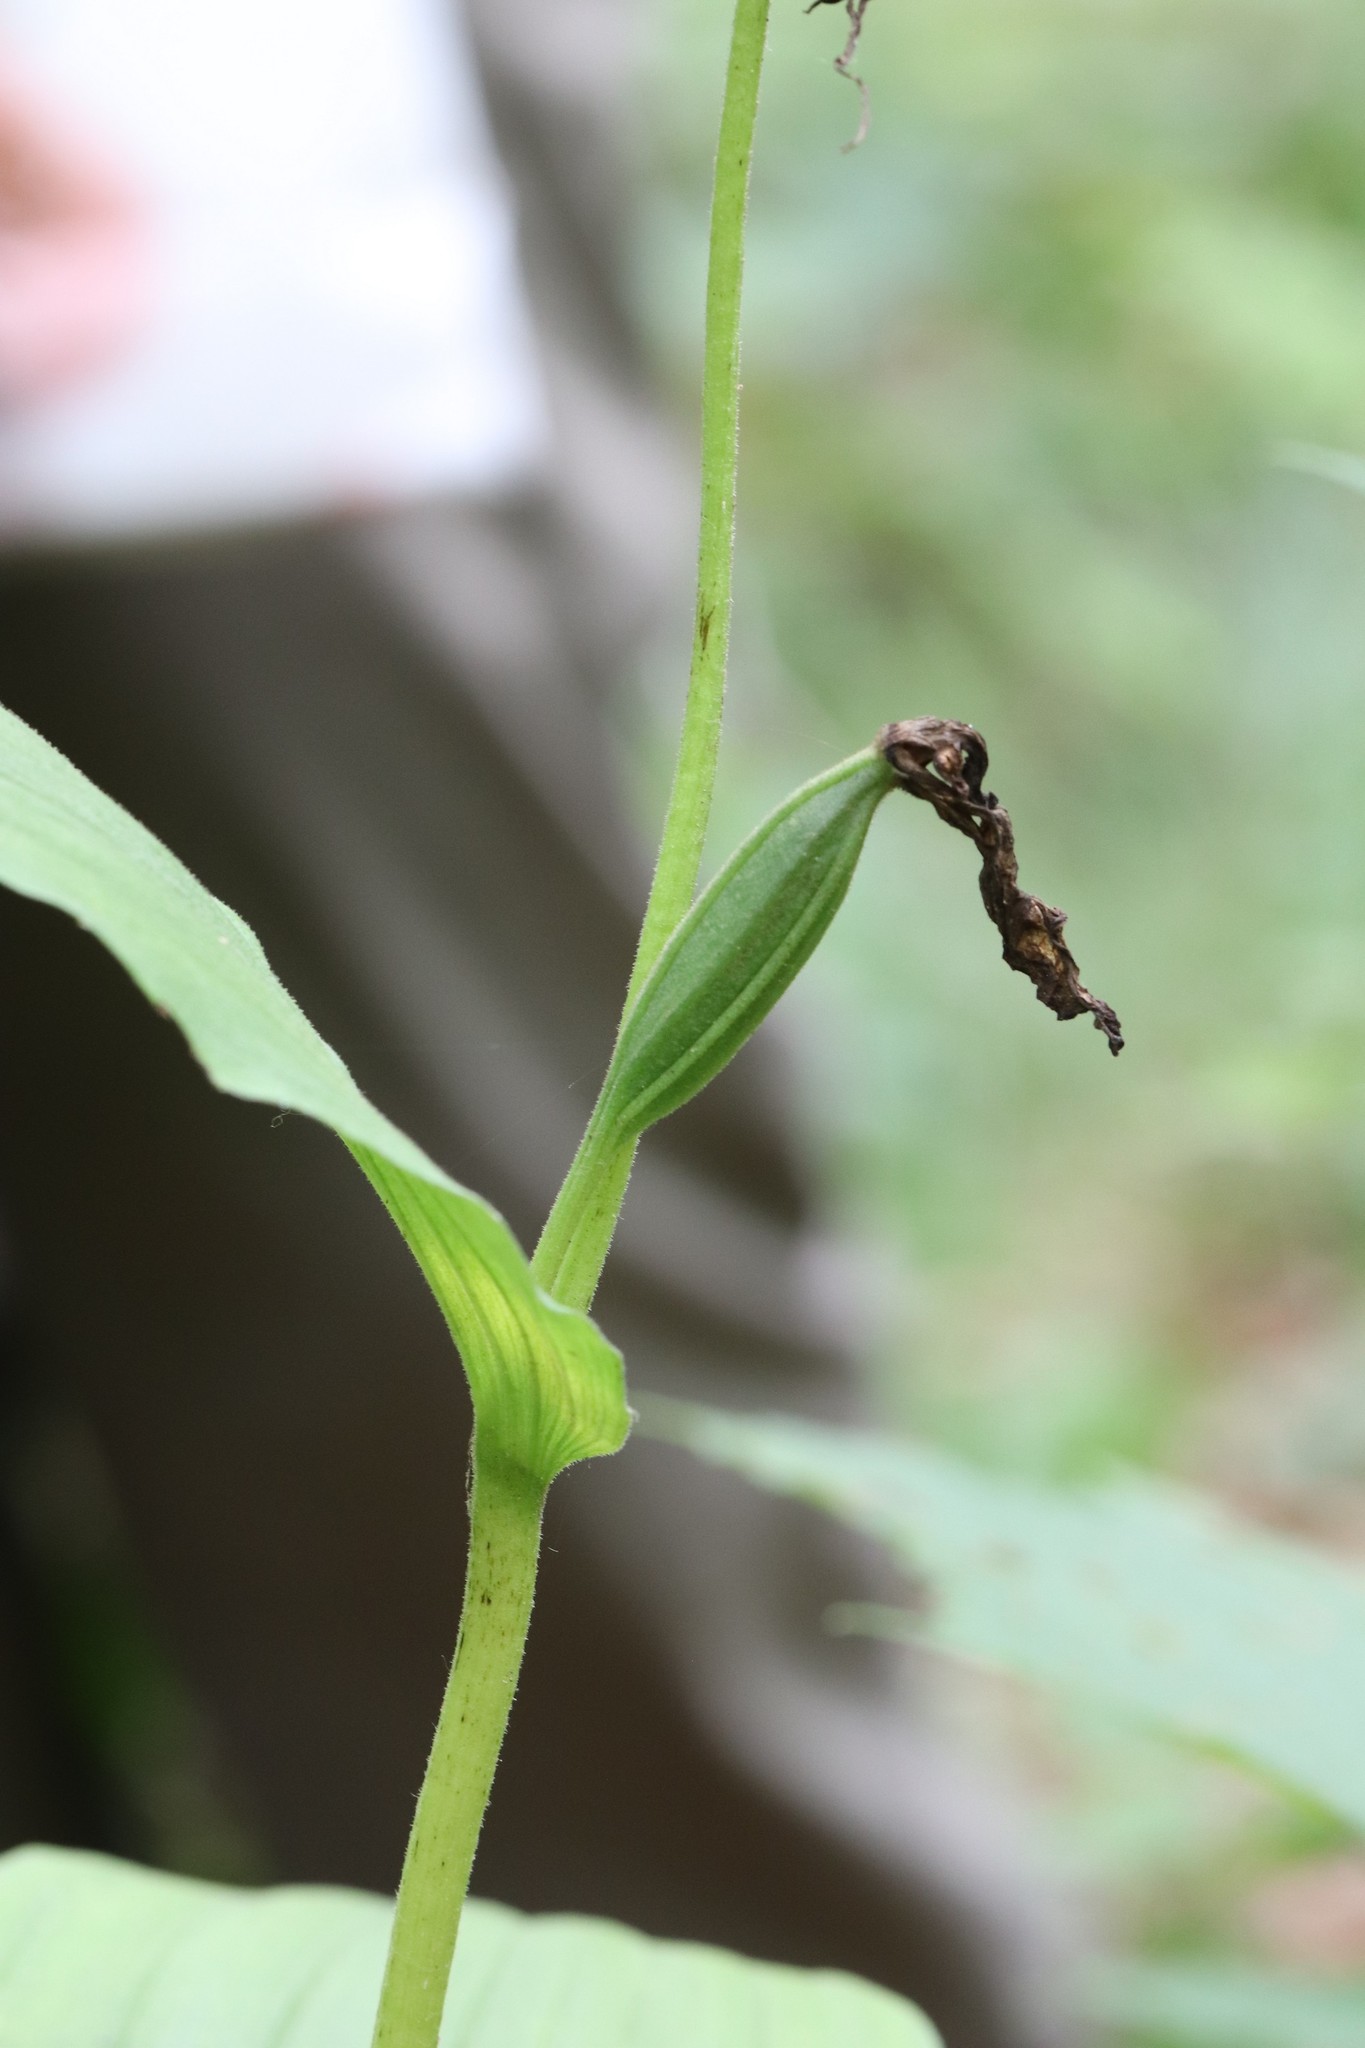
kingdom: Plantae
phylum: Tracheophyta
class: Liliopsida
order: Asparagales
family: Orchidaceae
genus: Cypripedium
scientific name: Cypripedium calceolus
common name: Lady's-slipper
